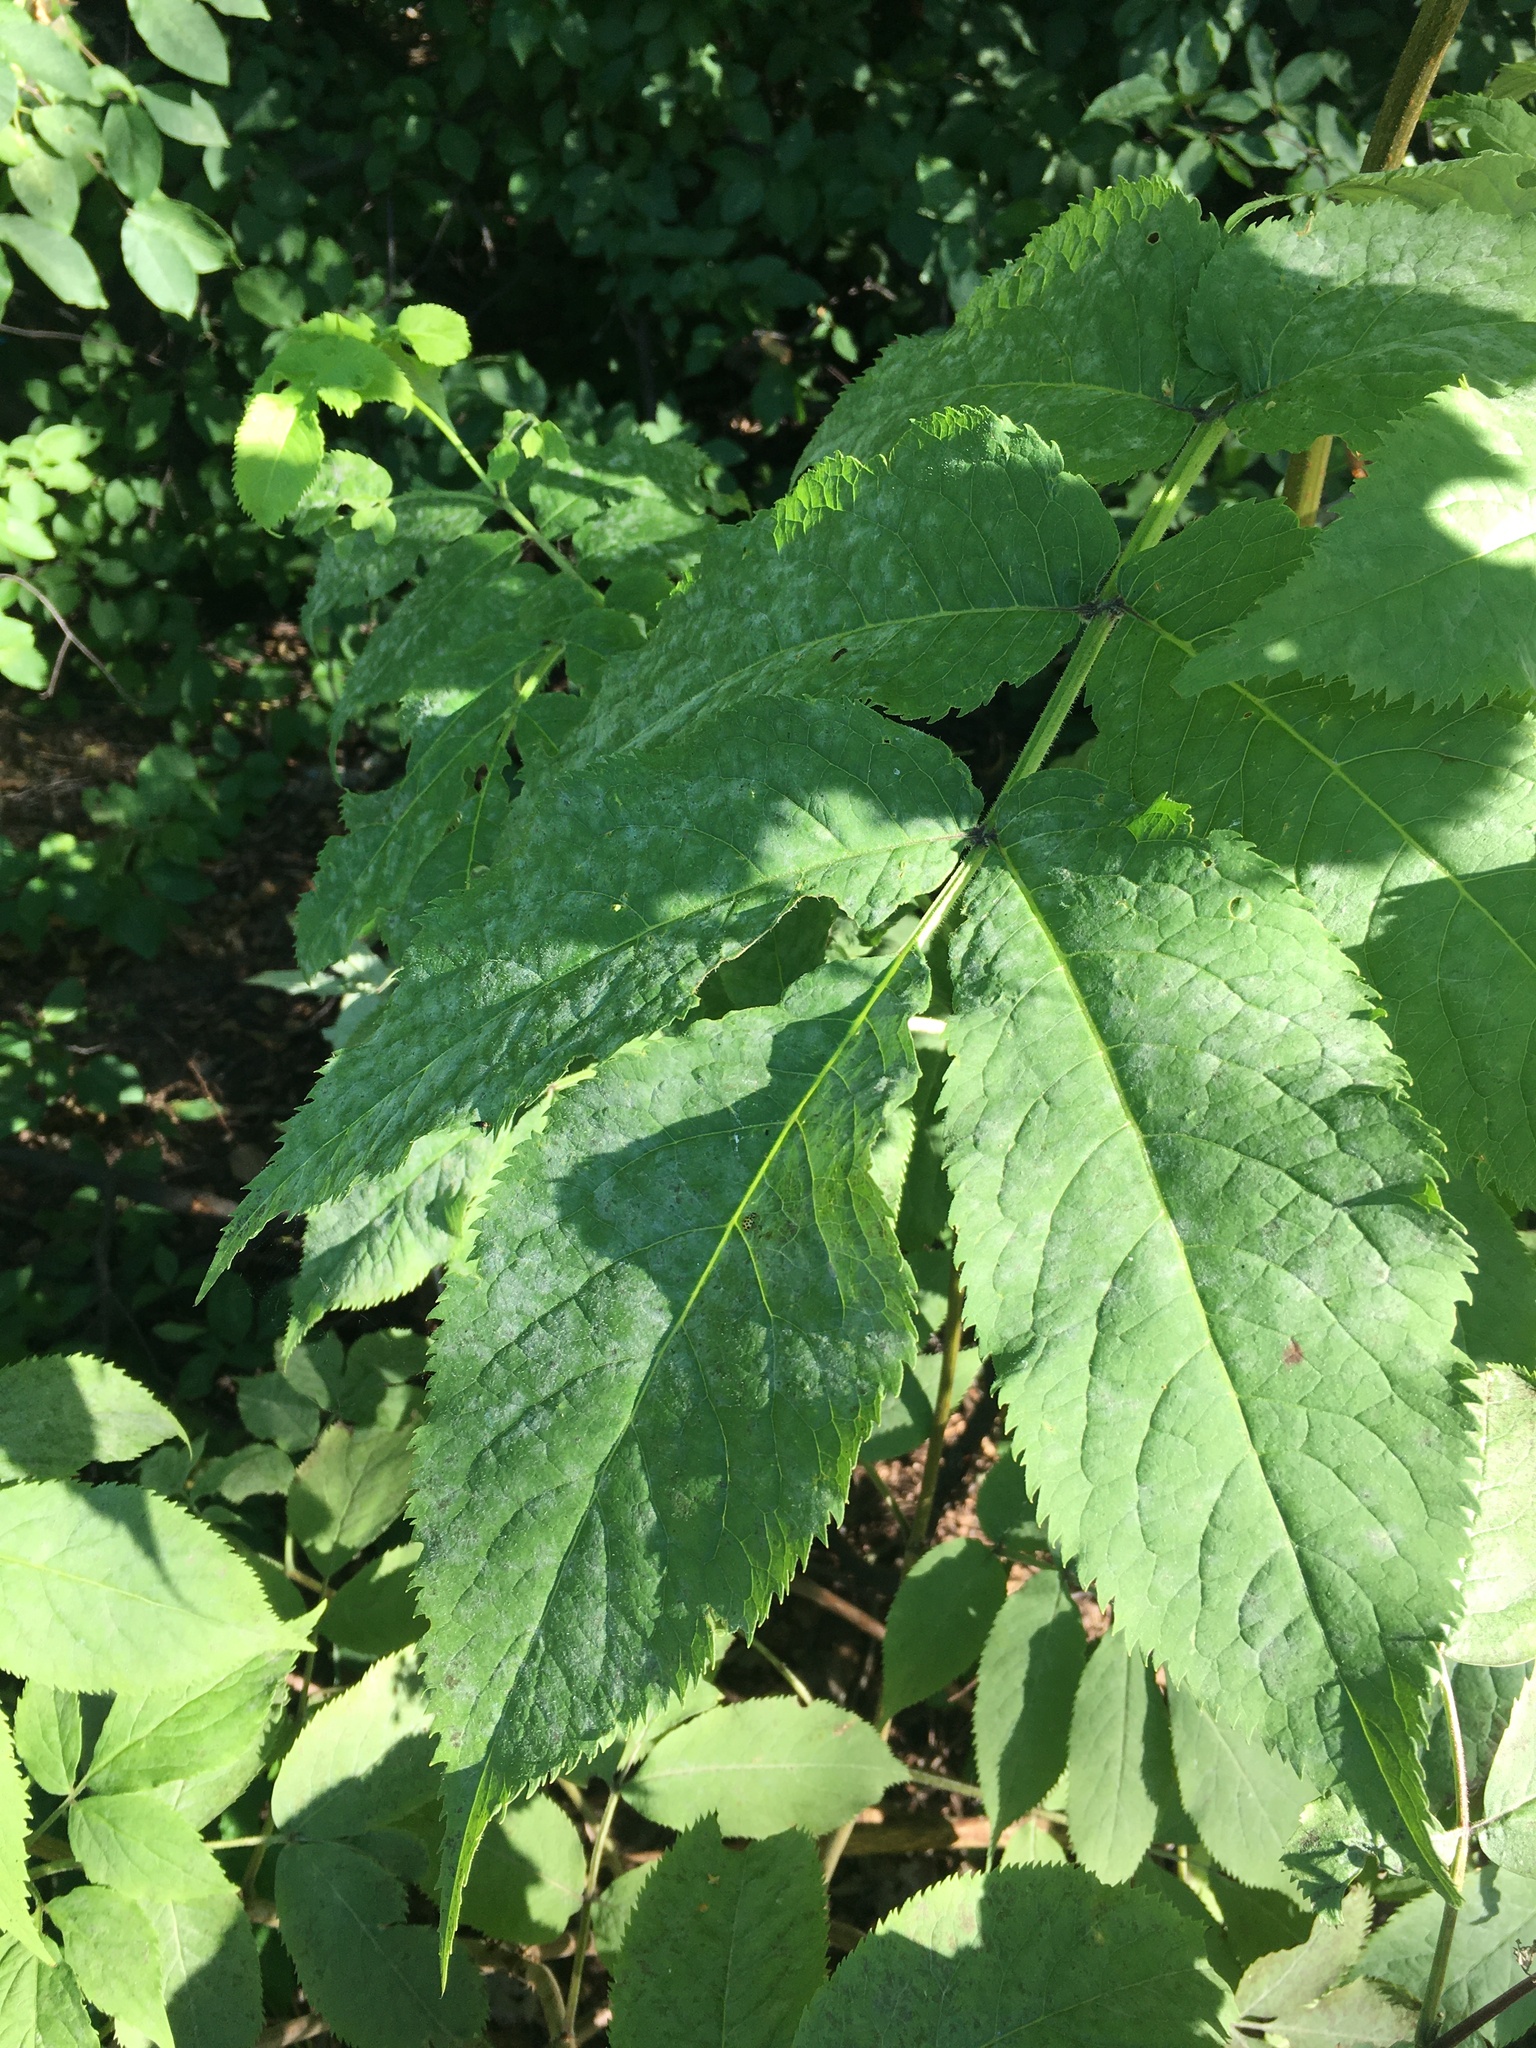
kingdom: Plantae
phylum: Tracheophyta
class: Magnoliopsida
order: Dipsacales
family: Viburnaceae
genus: Sambucus
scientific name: Sambucus racemosa
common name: Red-berried elder
